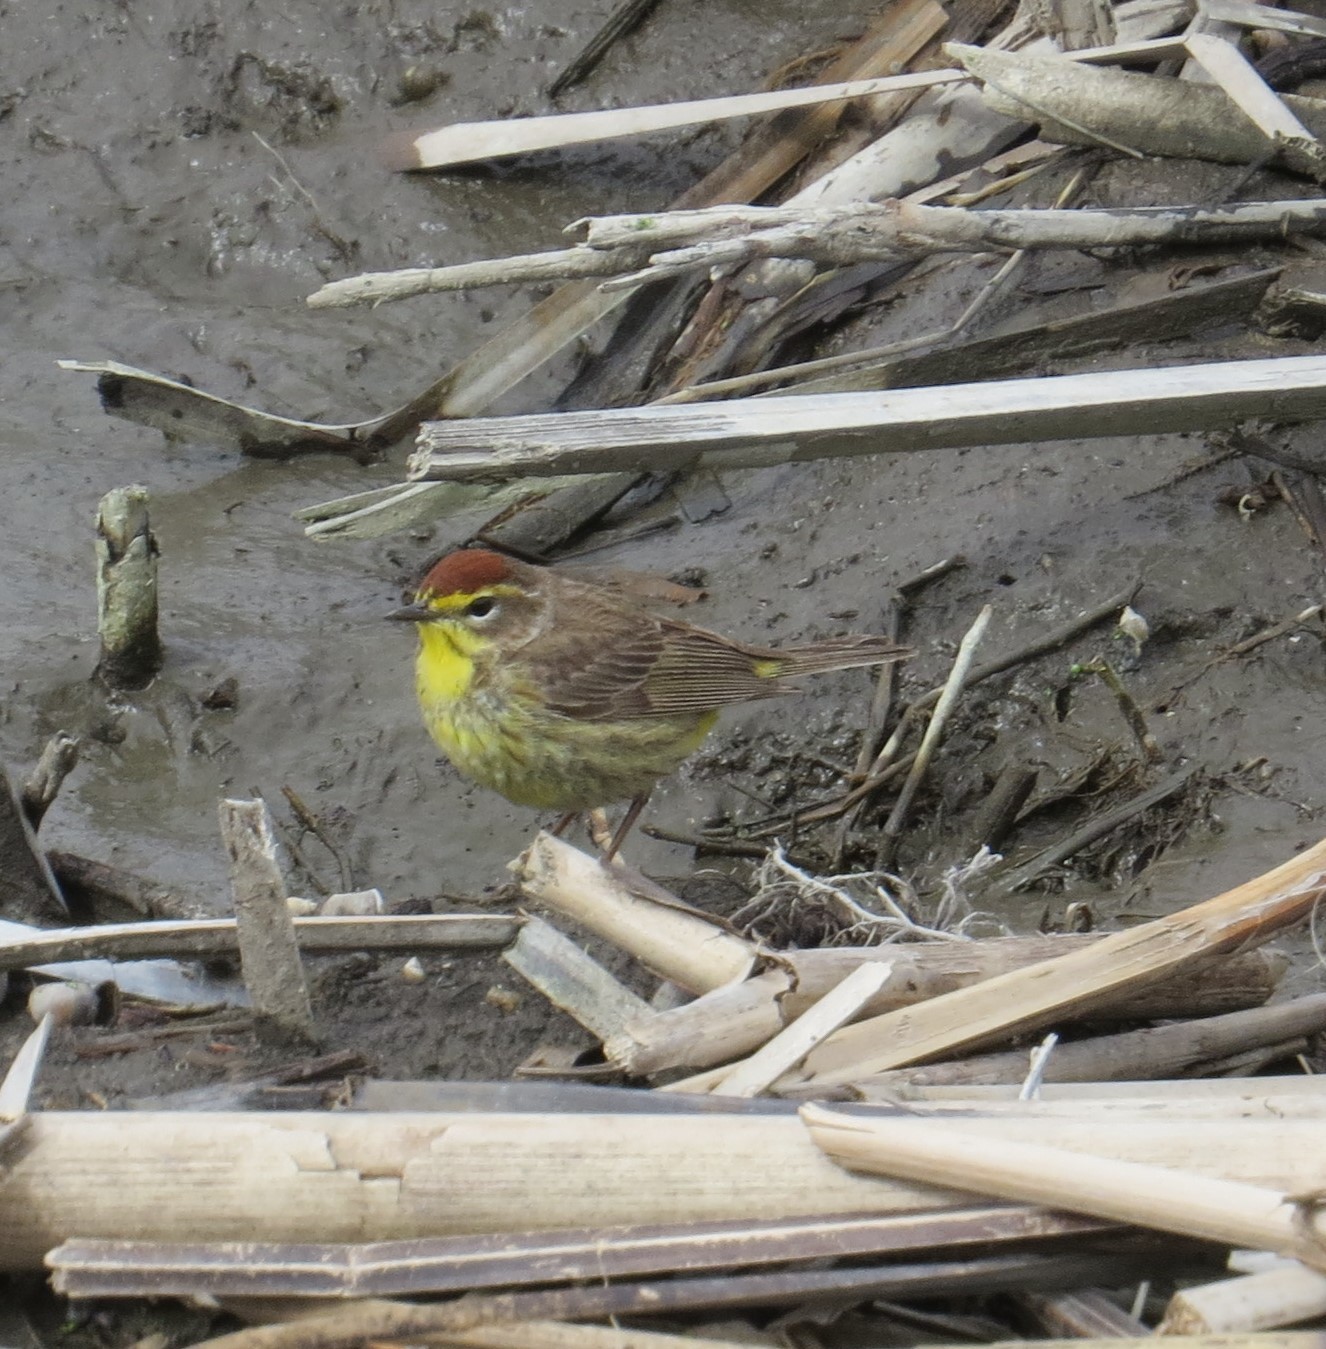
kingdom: Animalia
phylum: Chordata
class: Aves
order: Passeriformes
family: Parulidae
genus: Setophaga
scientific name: Setophaga palmarum
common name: Palm warbler
